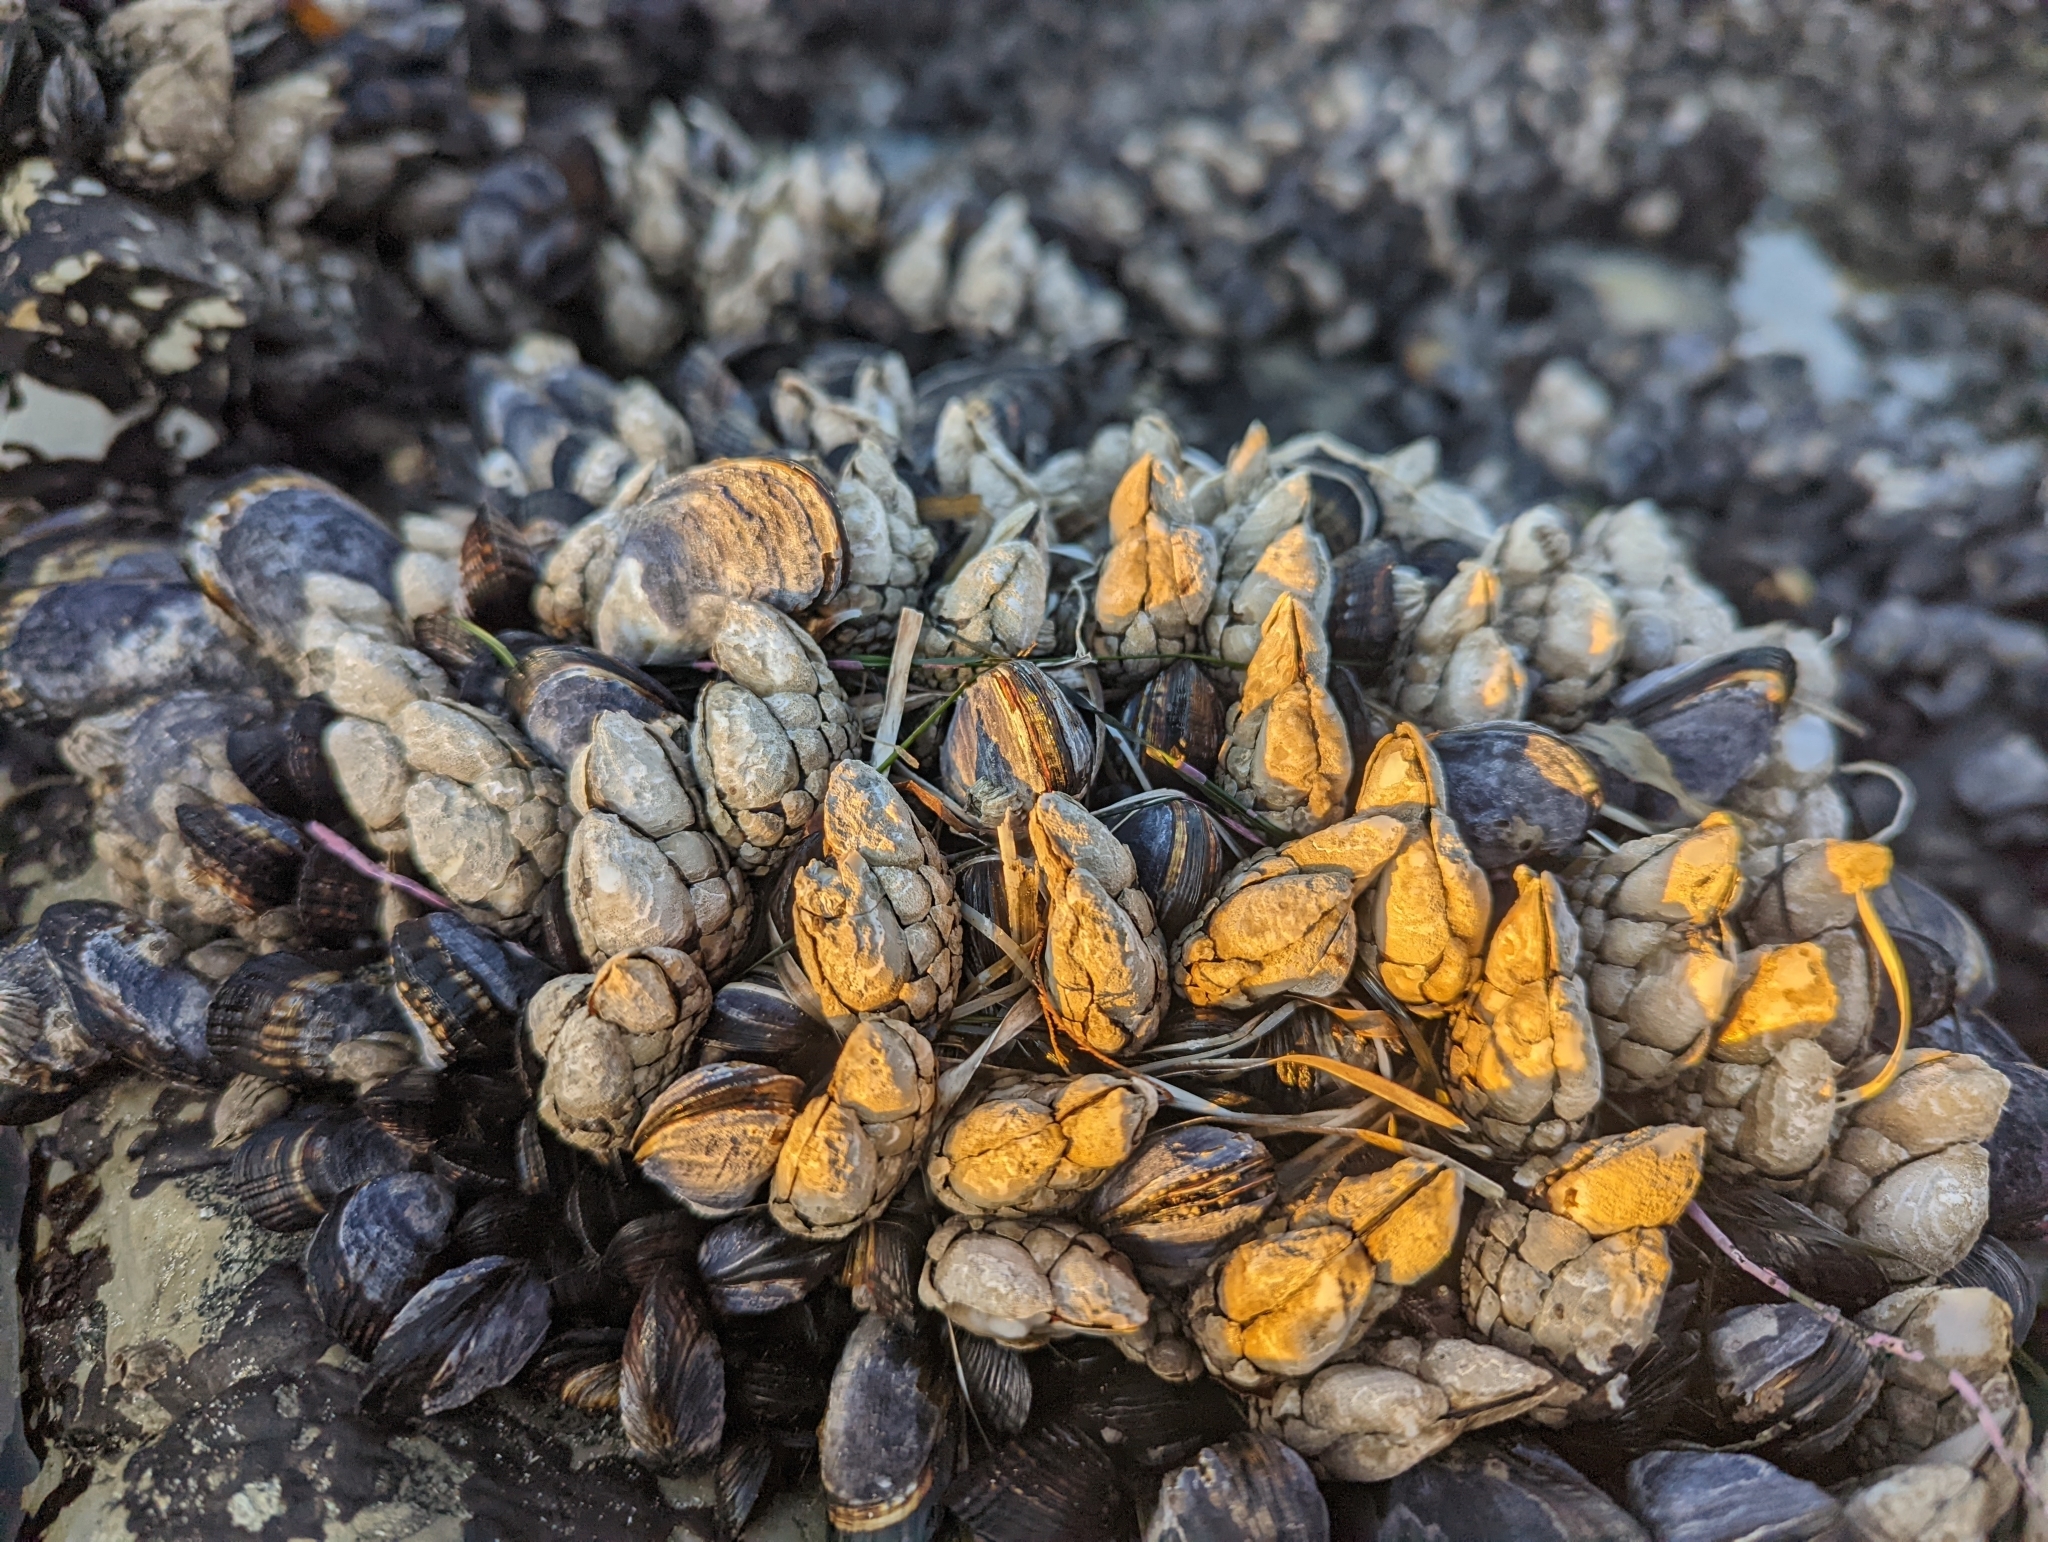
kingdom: Animalia
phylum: Arthropoda
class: Maxillopoda
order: Pedunculata
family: Pollicipedidae
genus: Pollicipes
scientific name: Pollicipes polymerus
